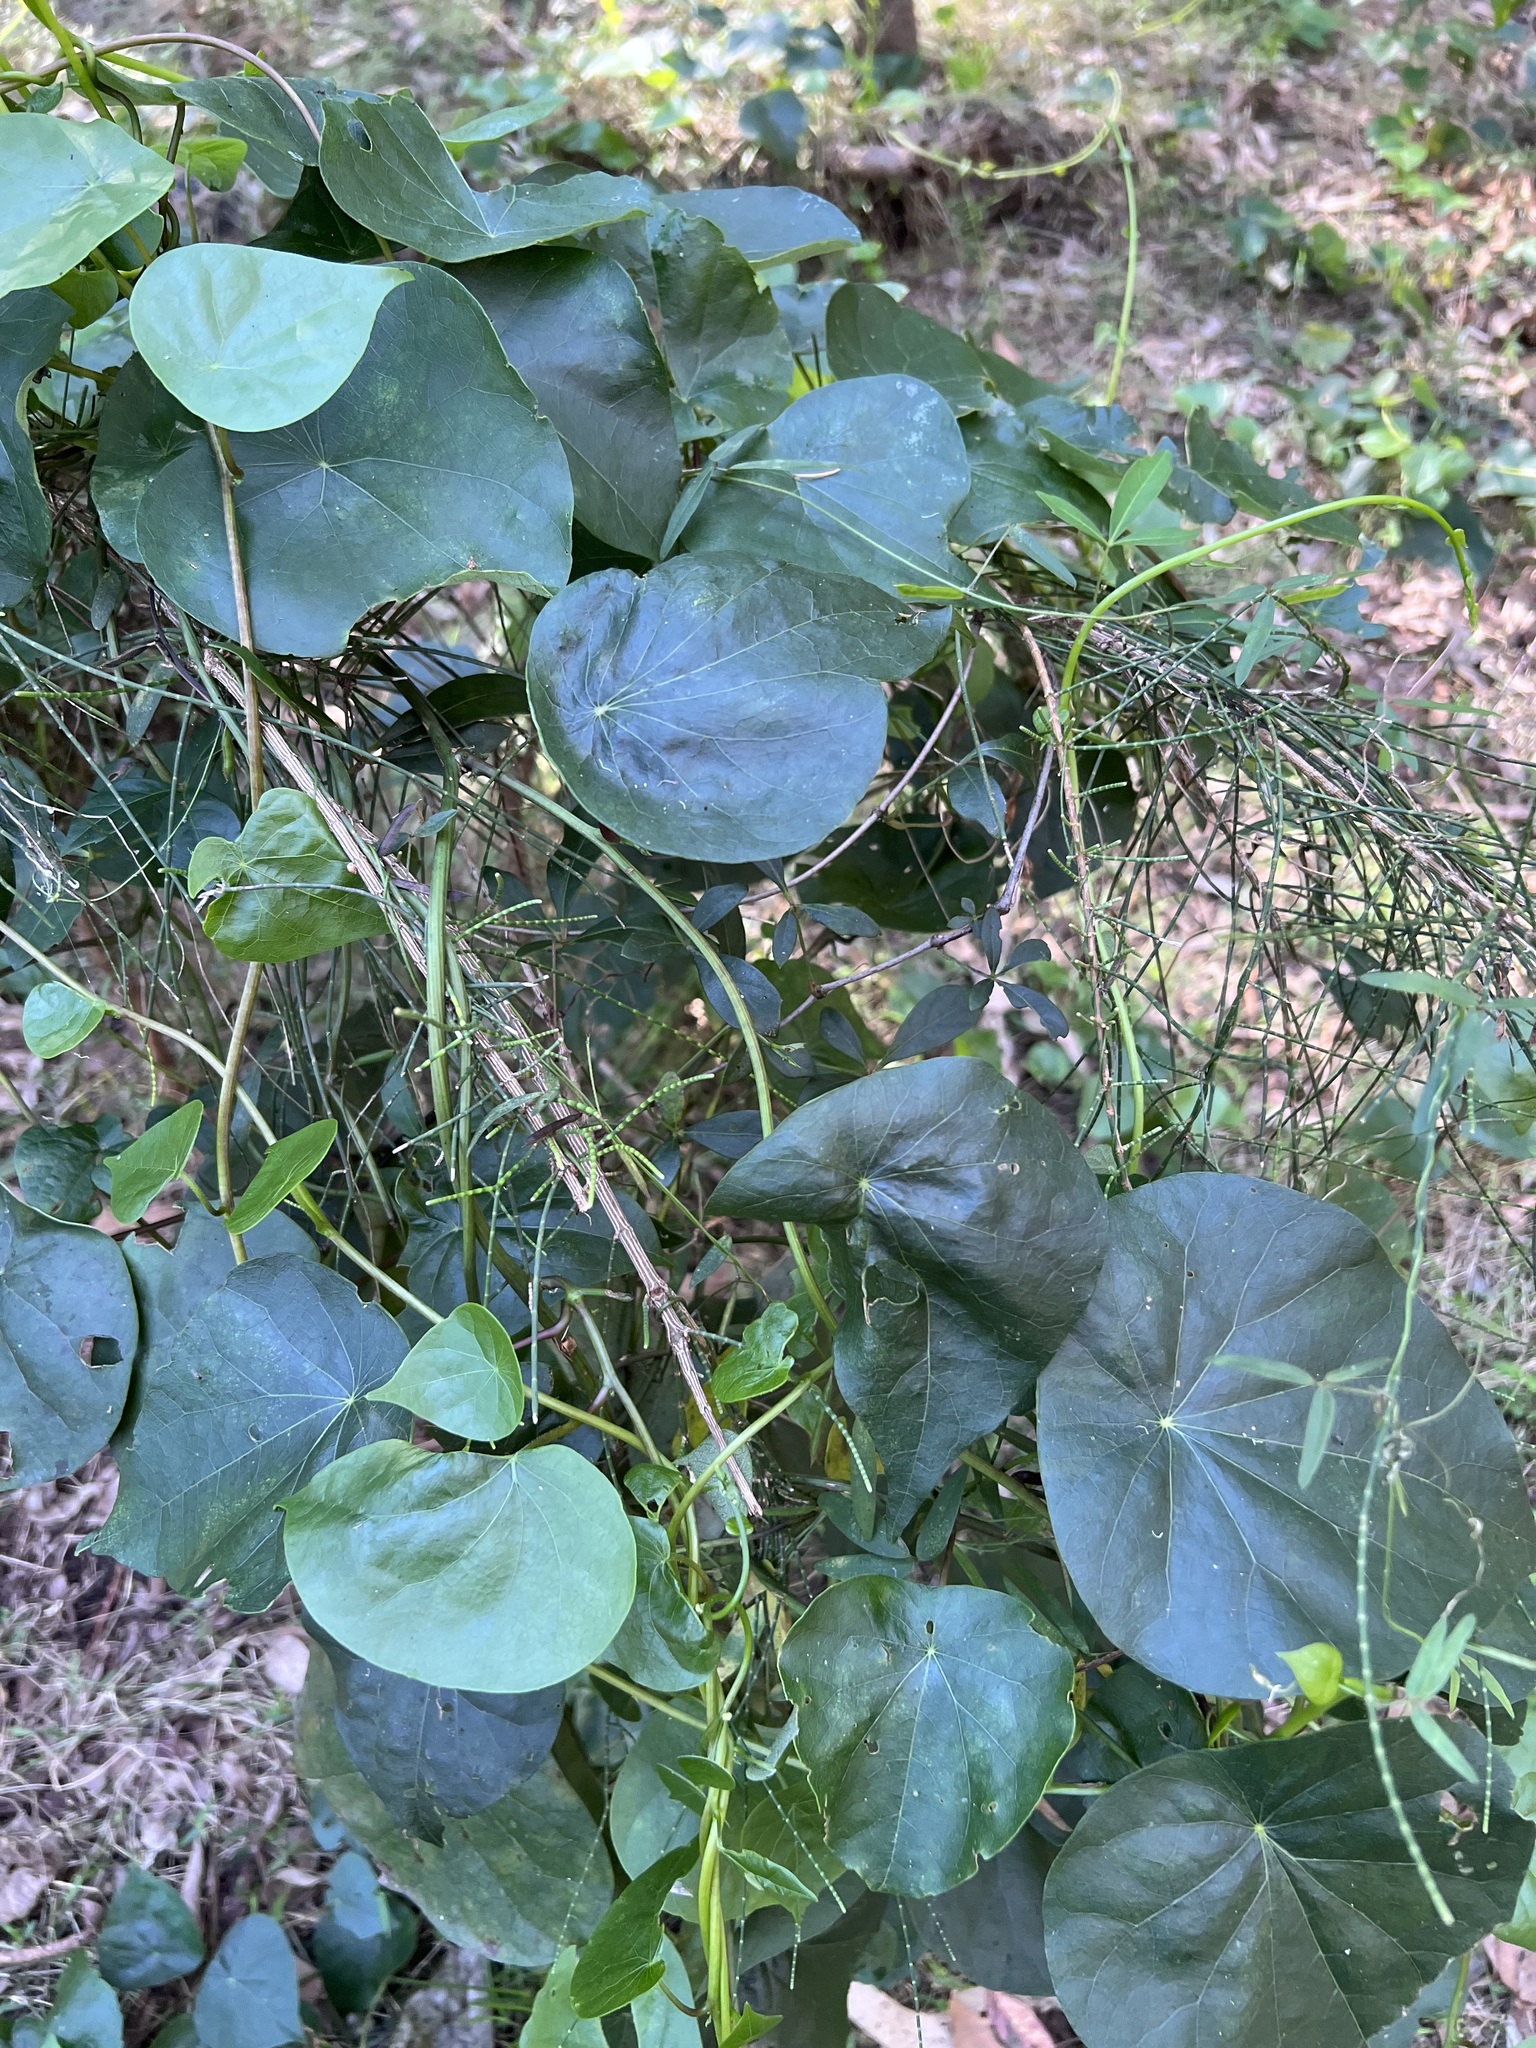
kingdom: Plantae
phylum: Tracheophyta
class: Magnoliopsida
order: Ranunculales
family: Menispermaceae
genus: Stephania
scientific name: Stephania japonica
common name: Snake vine
